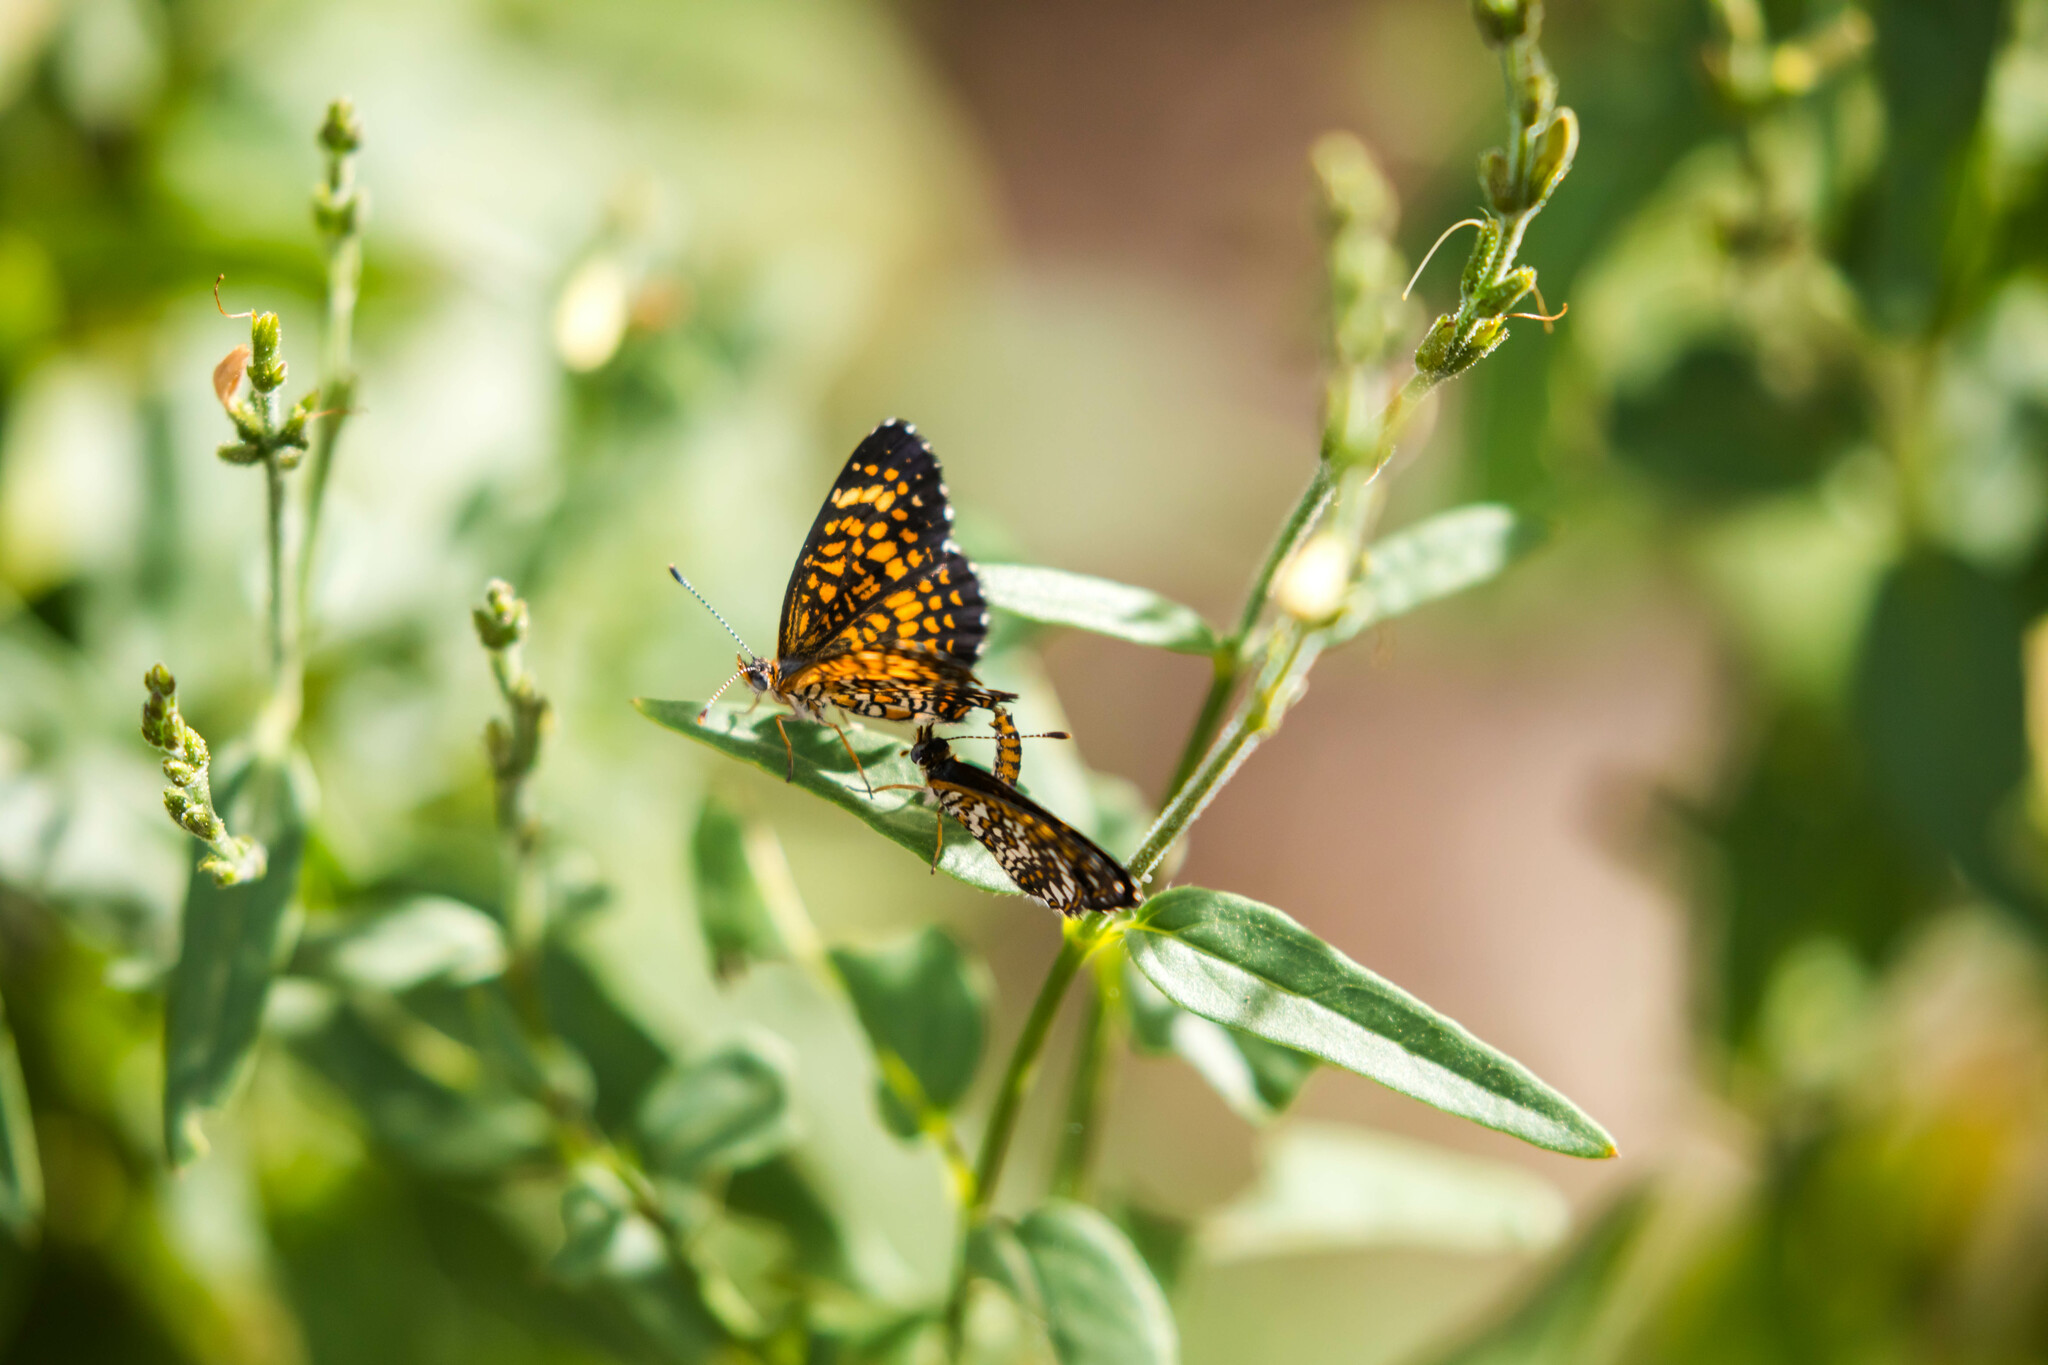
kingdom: Animalia
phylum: Arthropoda
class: Insecta
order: Lepidoptera
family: Nymphalidae
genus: Texola
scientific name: Texola elada
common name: Elada checkerspot
